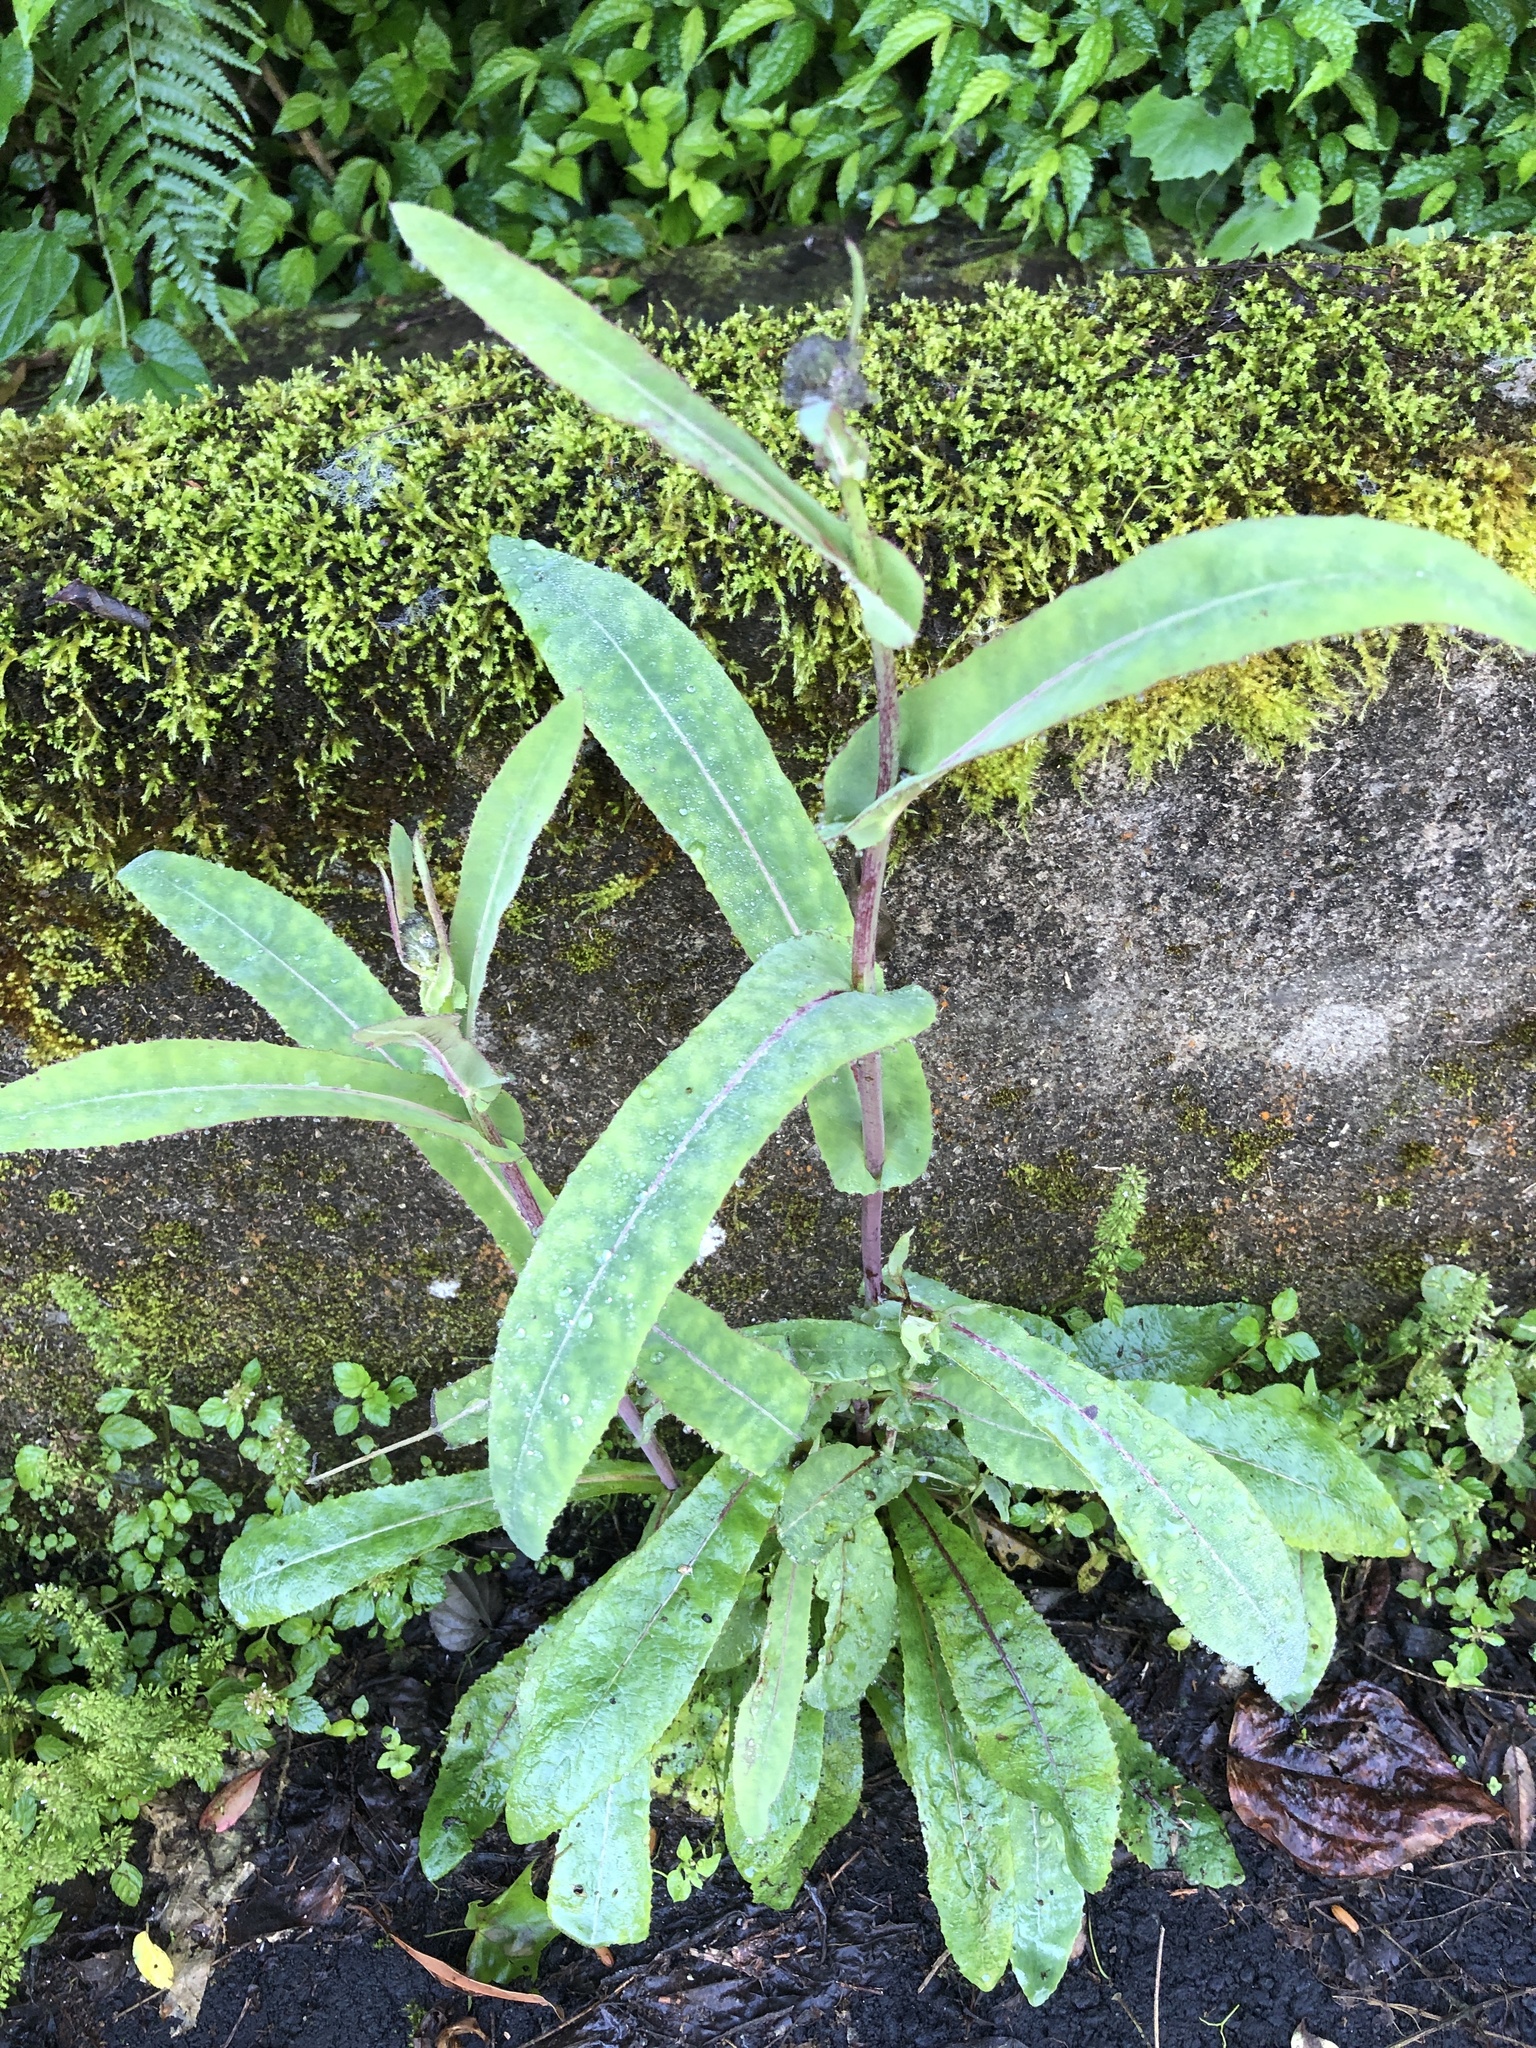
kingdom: Plantae
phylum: Tracheophyta
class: Magnoliopsida
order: Asterales
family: Asteraceae
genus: Sonchus
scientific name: Sonchus arvensis
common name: Perennial sow-thistle
